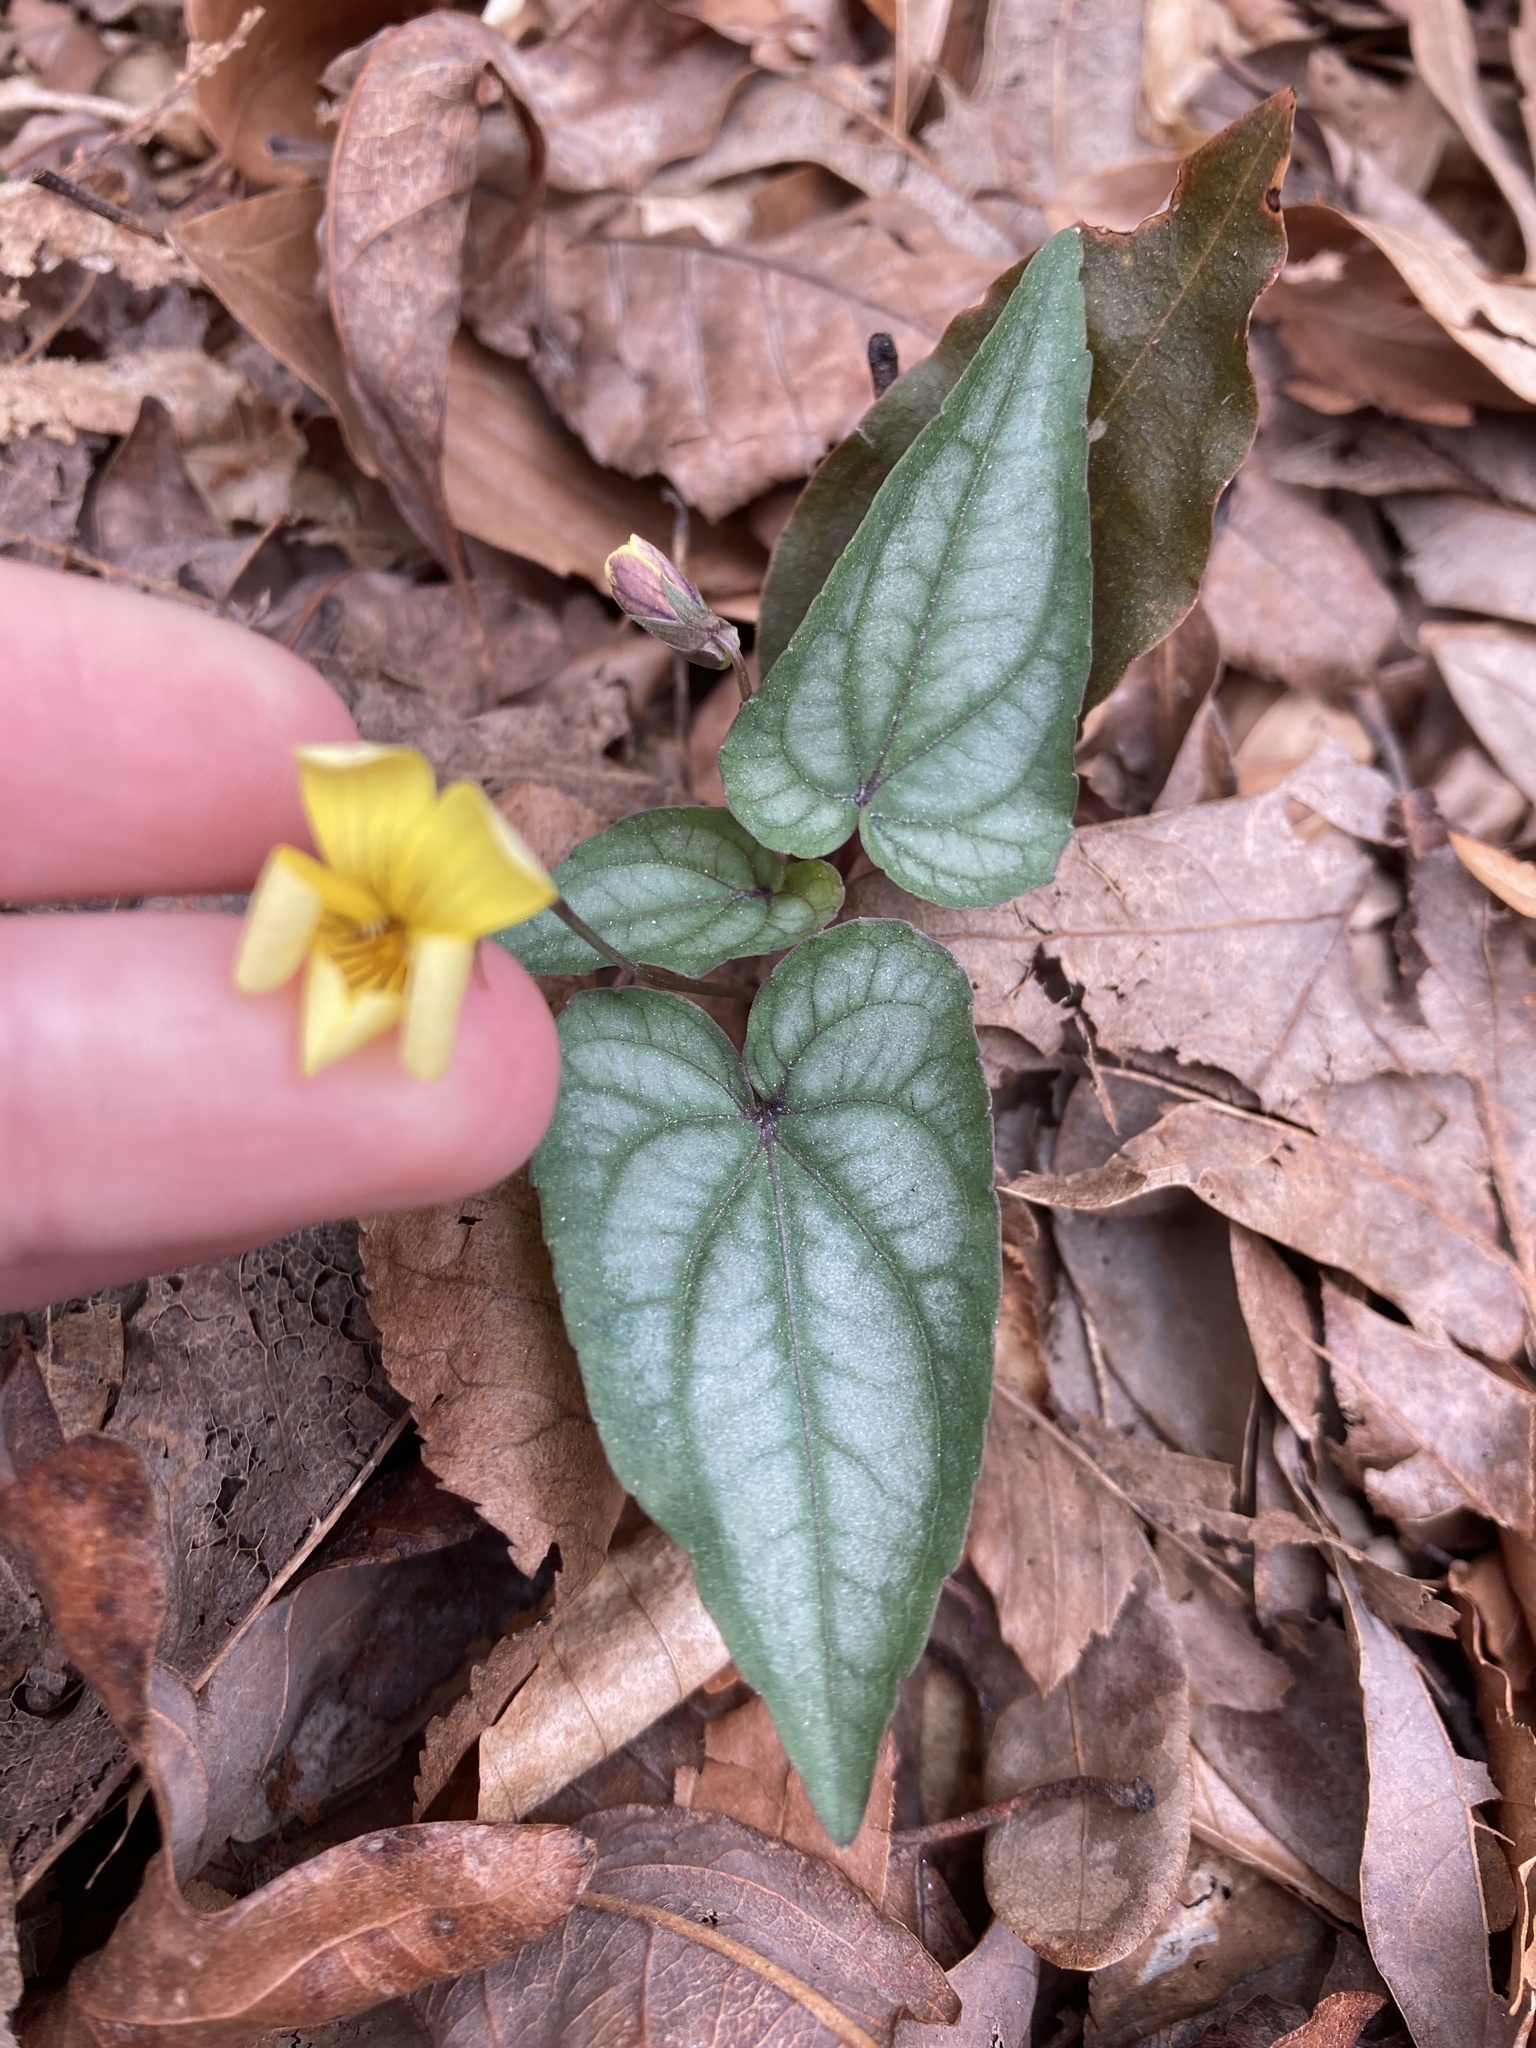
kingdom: Plantae
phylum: Tracheophyta
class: Magnoliopsida
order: Malpighiales
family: Violaceae
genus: Viola
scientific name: Viola hastata
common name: Spear-leaf violet
